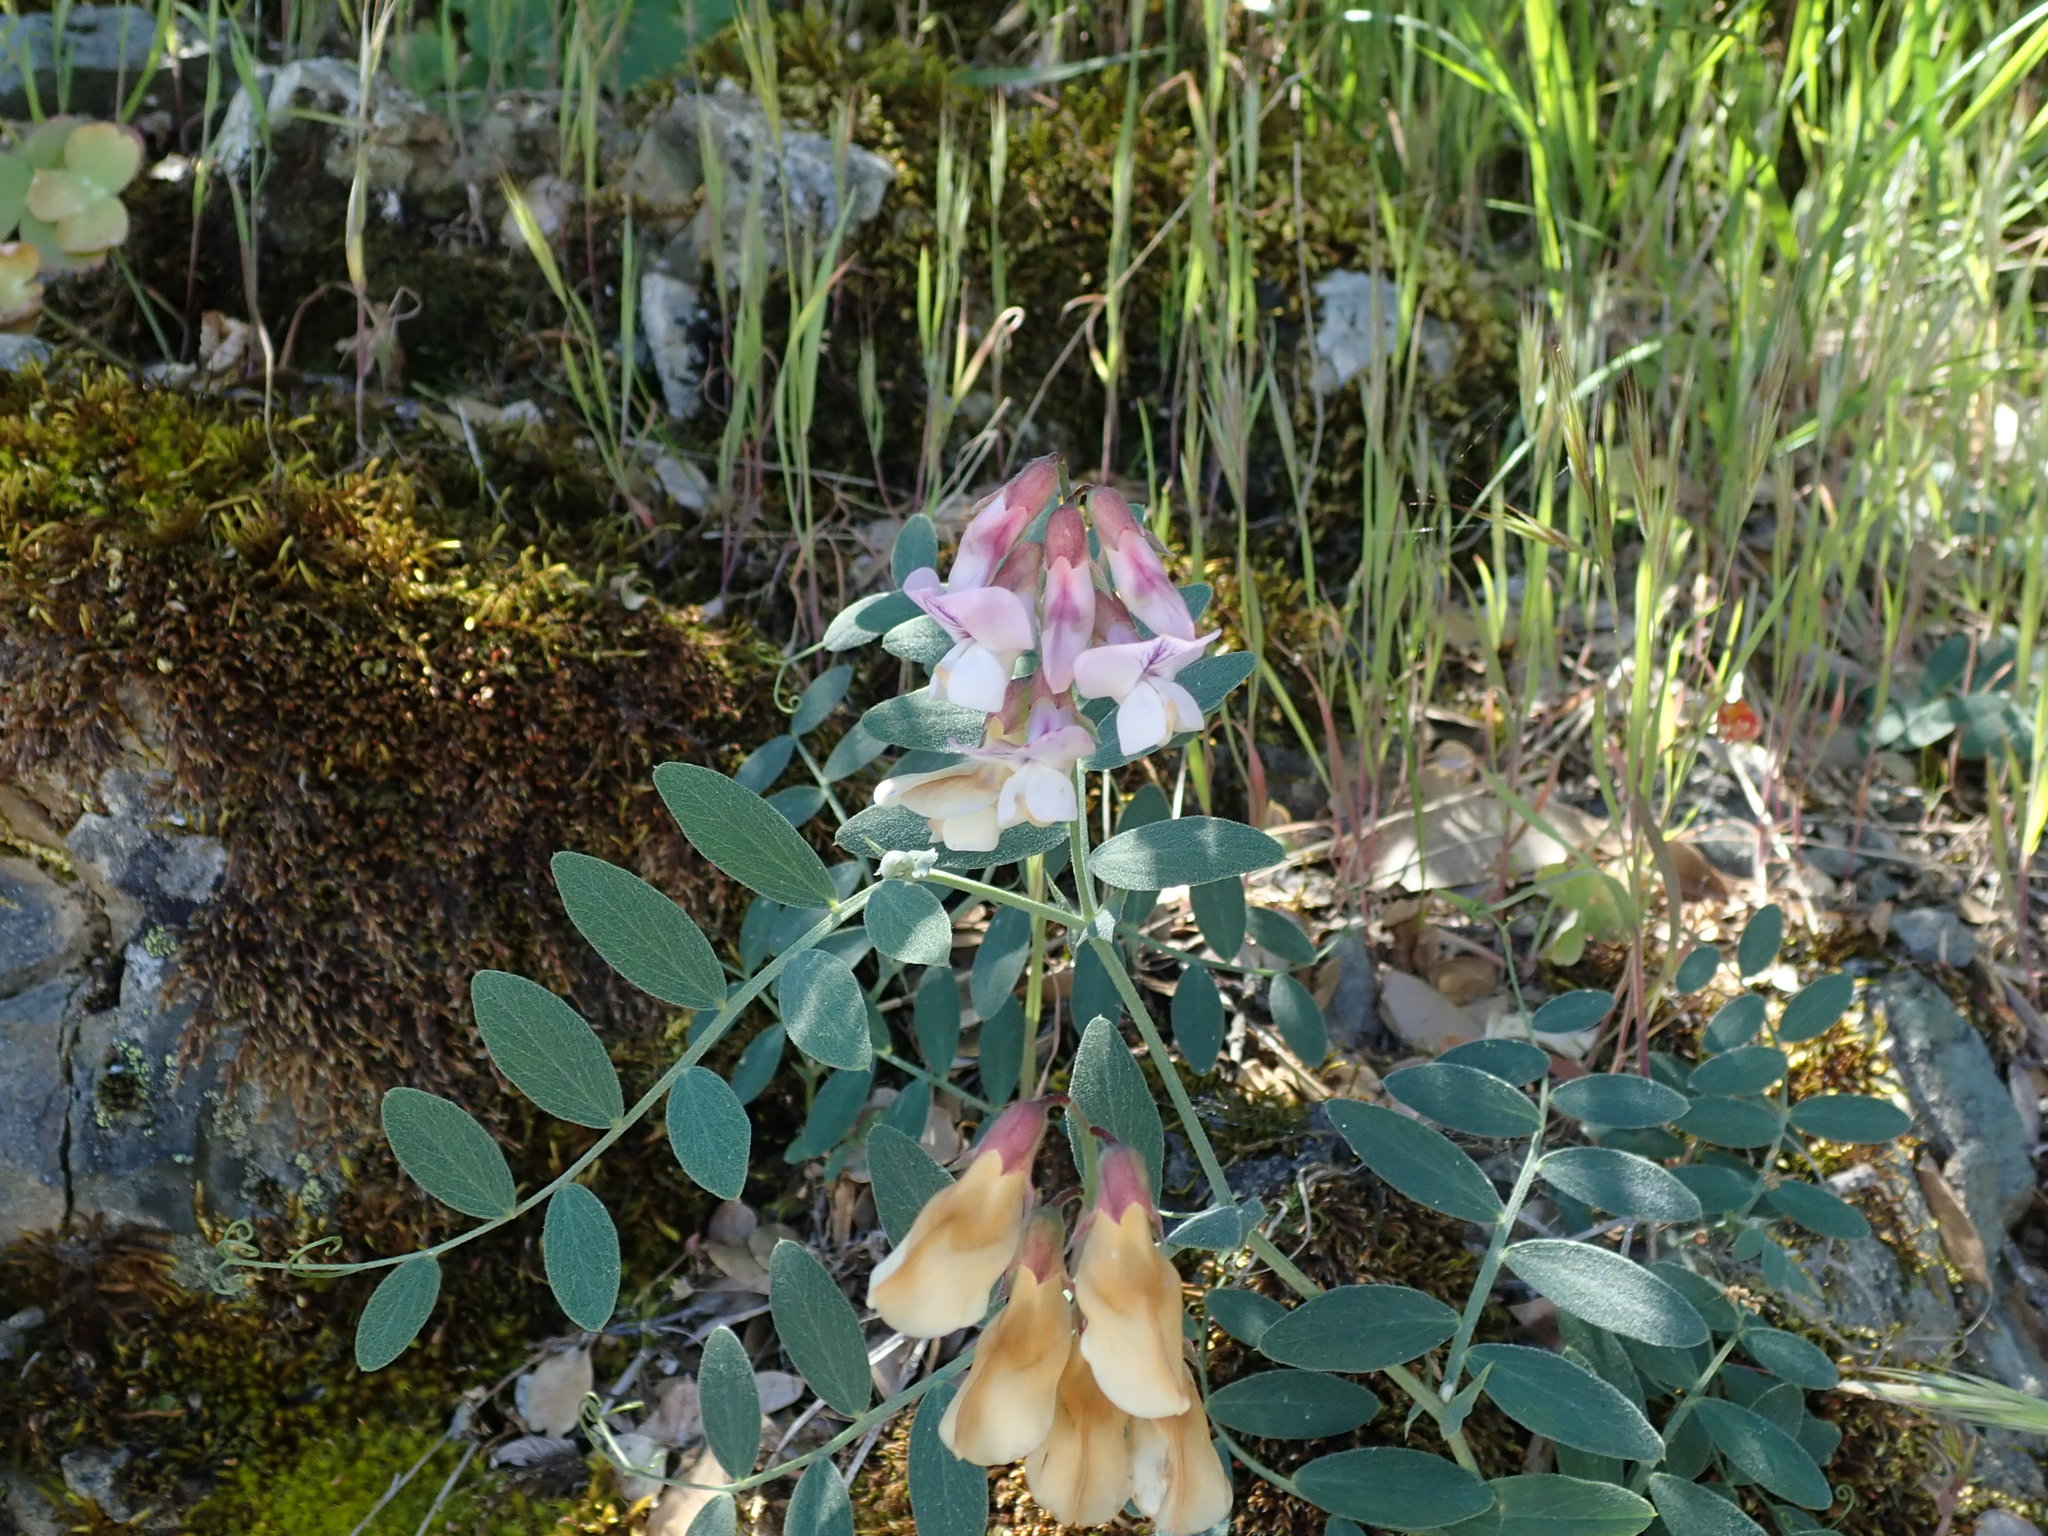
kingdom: Plantae
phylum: Tracheophyta
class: Magnoliopsida
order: Fabales
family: Fabaceae
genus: Lathyrus
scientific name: Lathyrus vestitus
